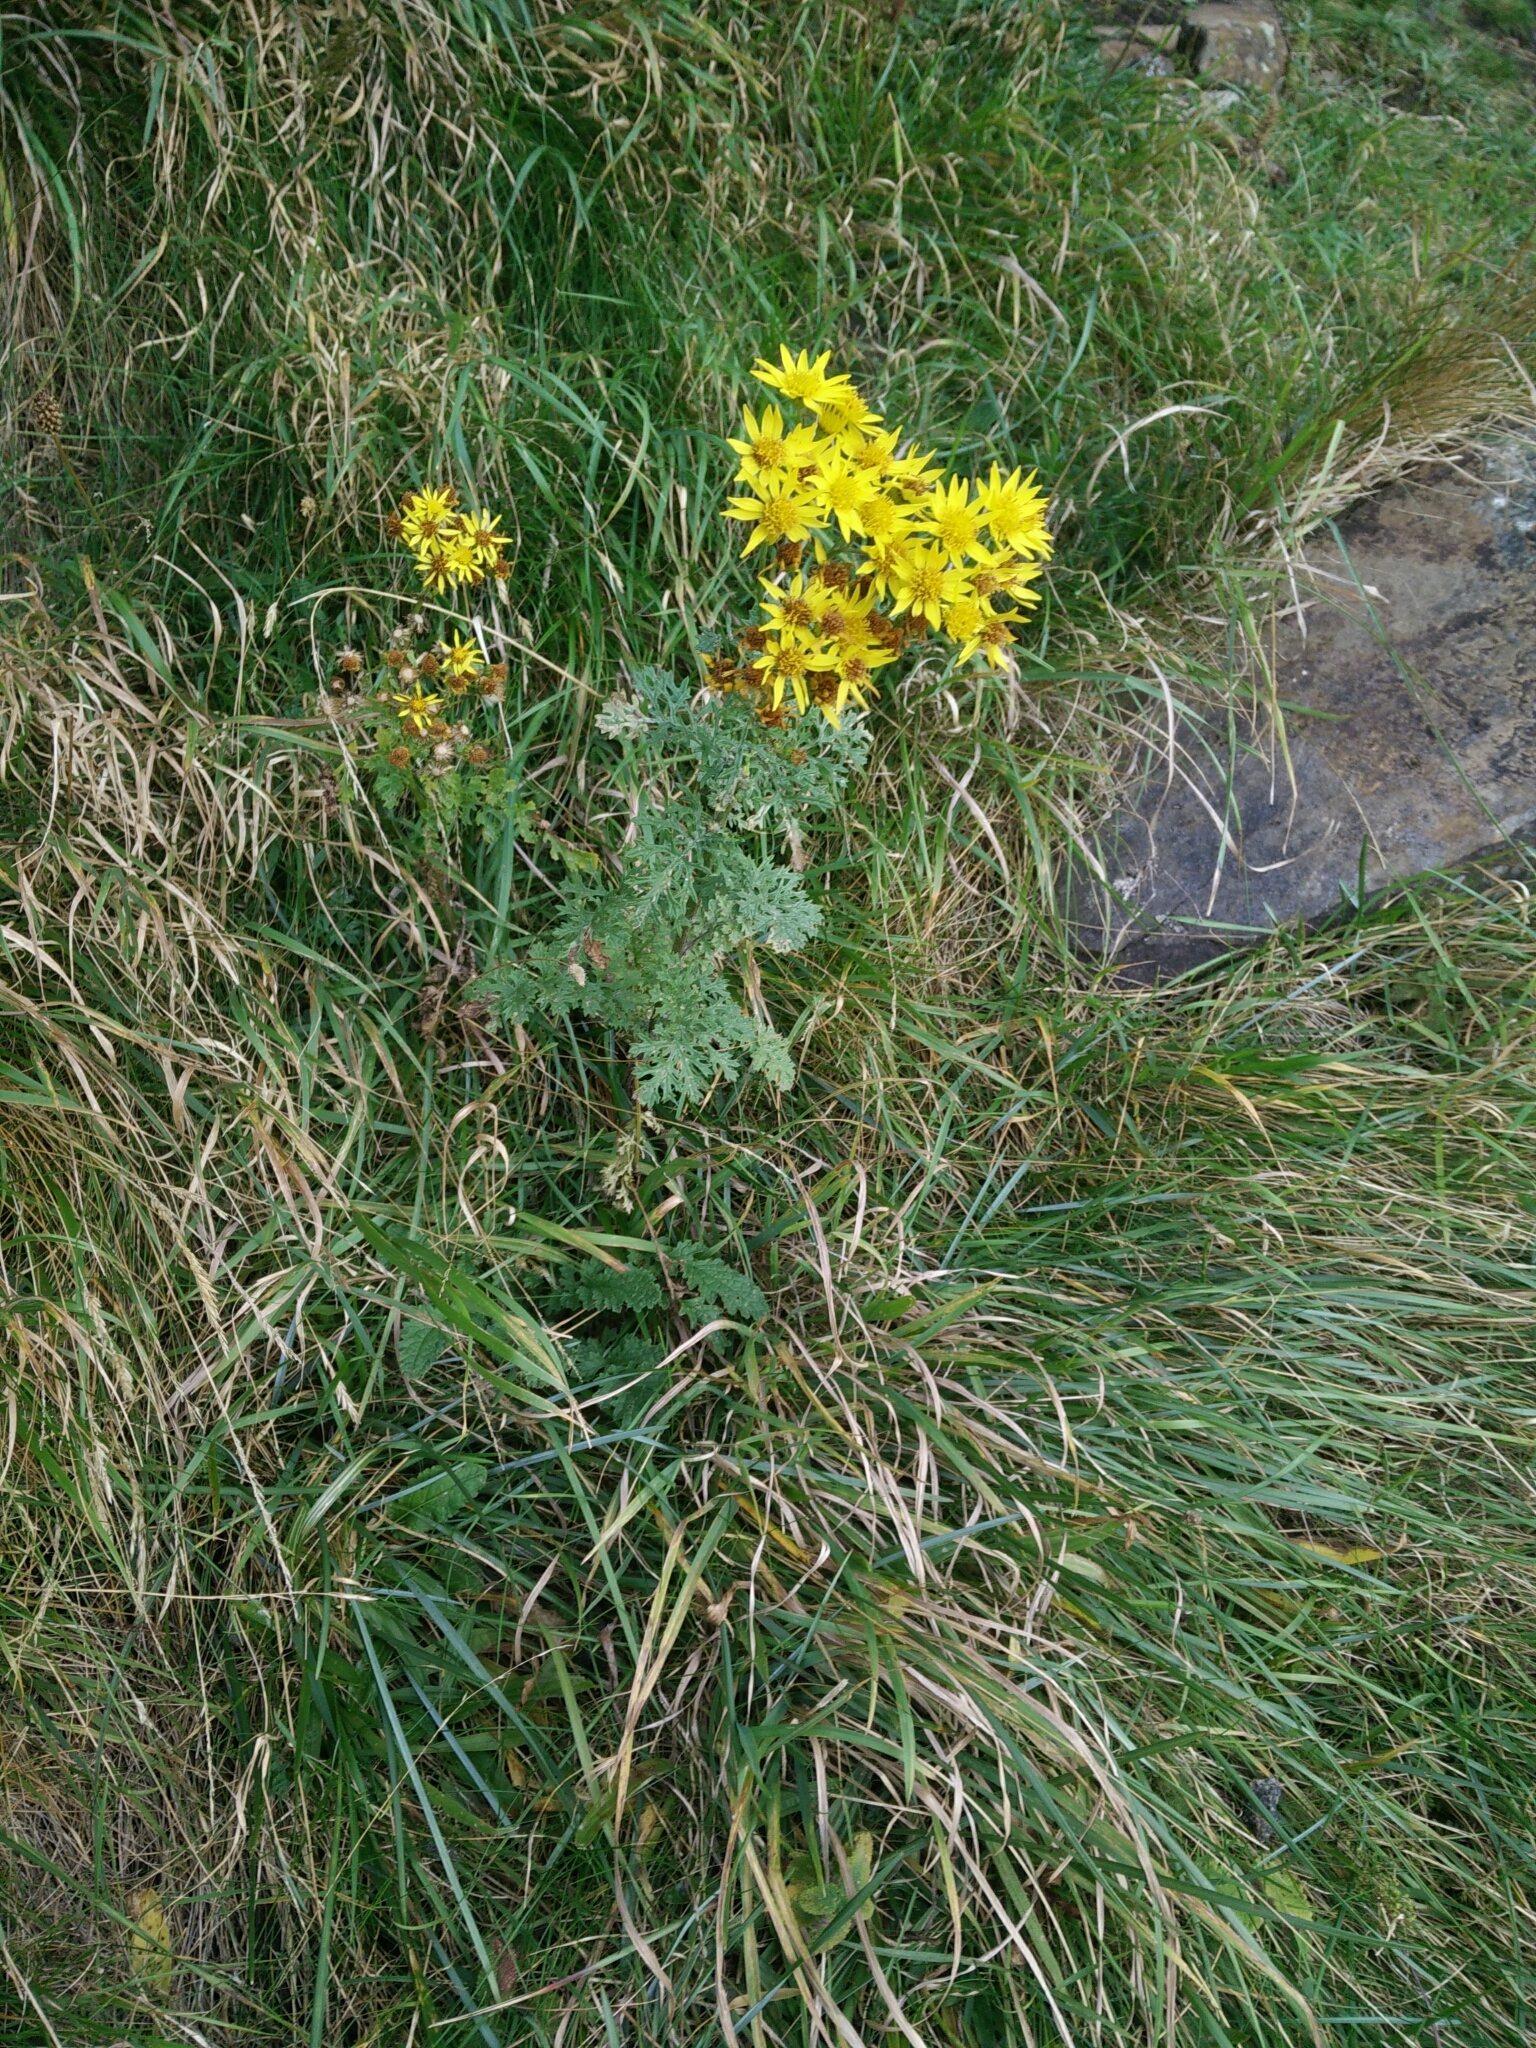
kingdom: Plantae
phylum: Tracheophyta
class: Magnoliopsida
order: Asterales
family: Asteraceae
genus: Jacobaea
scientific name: Jacobaea vulgaris
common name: Stinking willie
